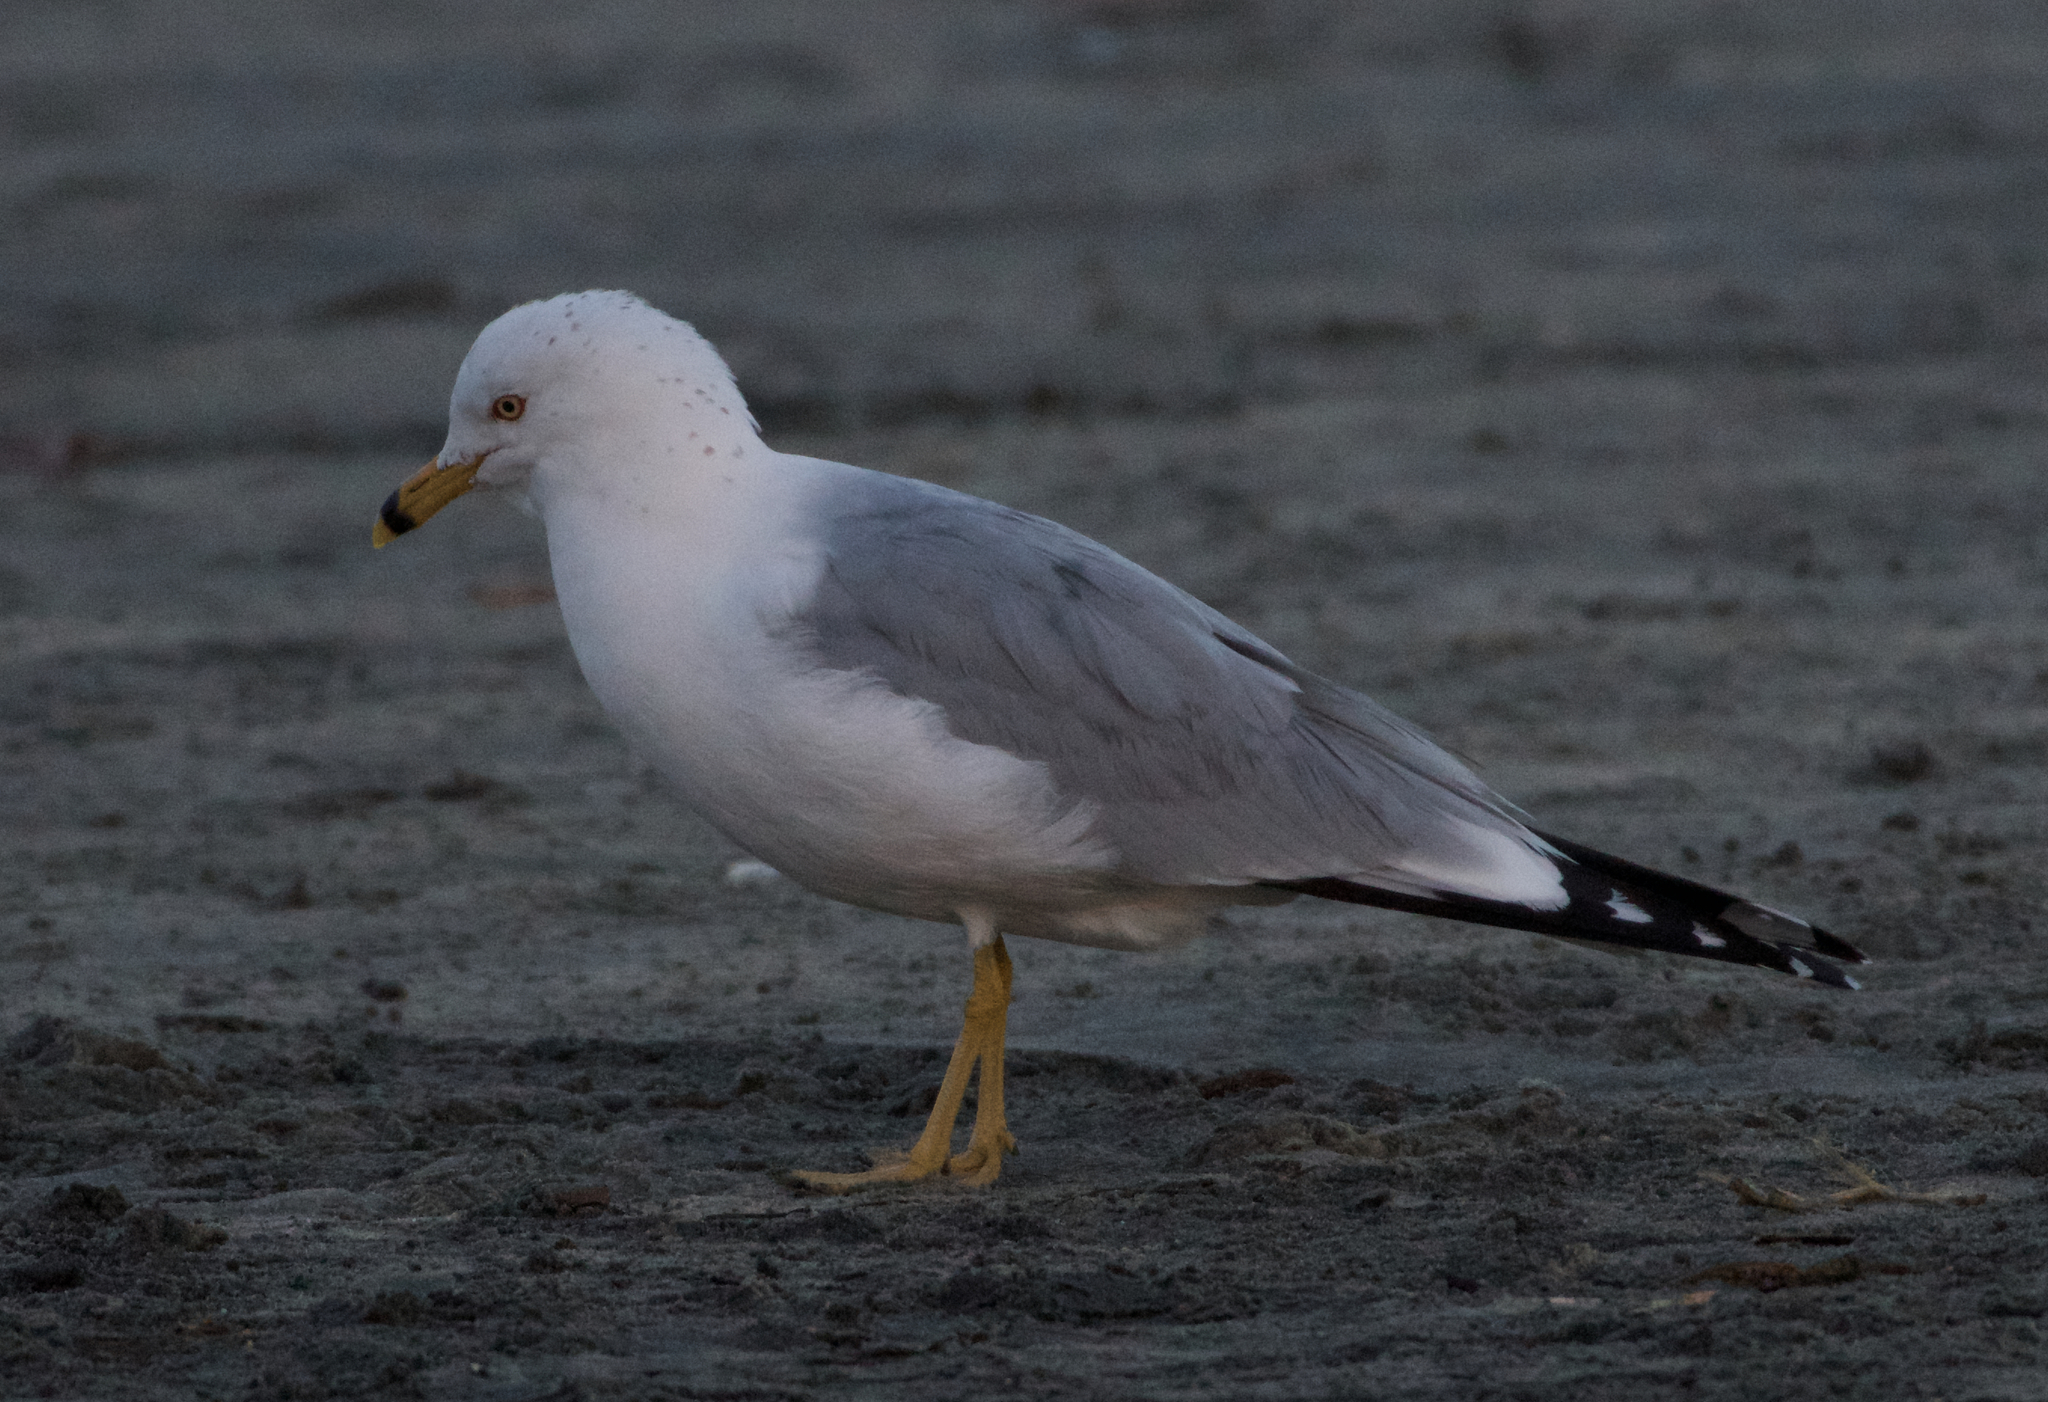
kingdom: Animalia
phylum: Chordata
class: Aves
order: Charadriiformes
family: Laridae
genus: Larus
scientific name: Larus delawarensis
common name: Ring-billed gull
